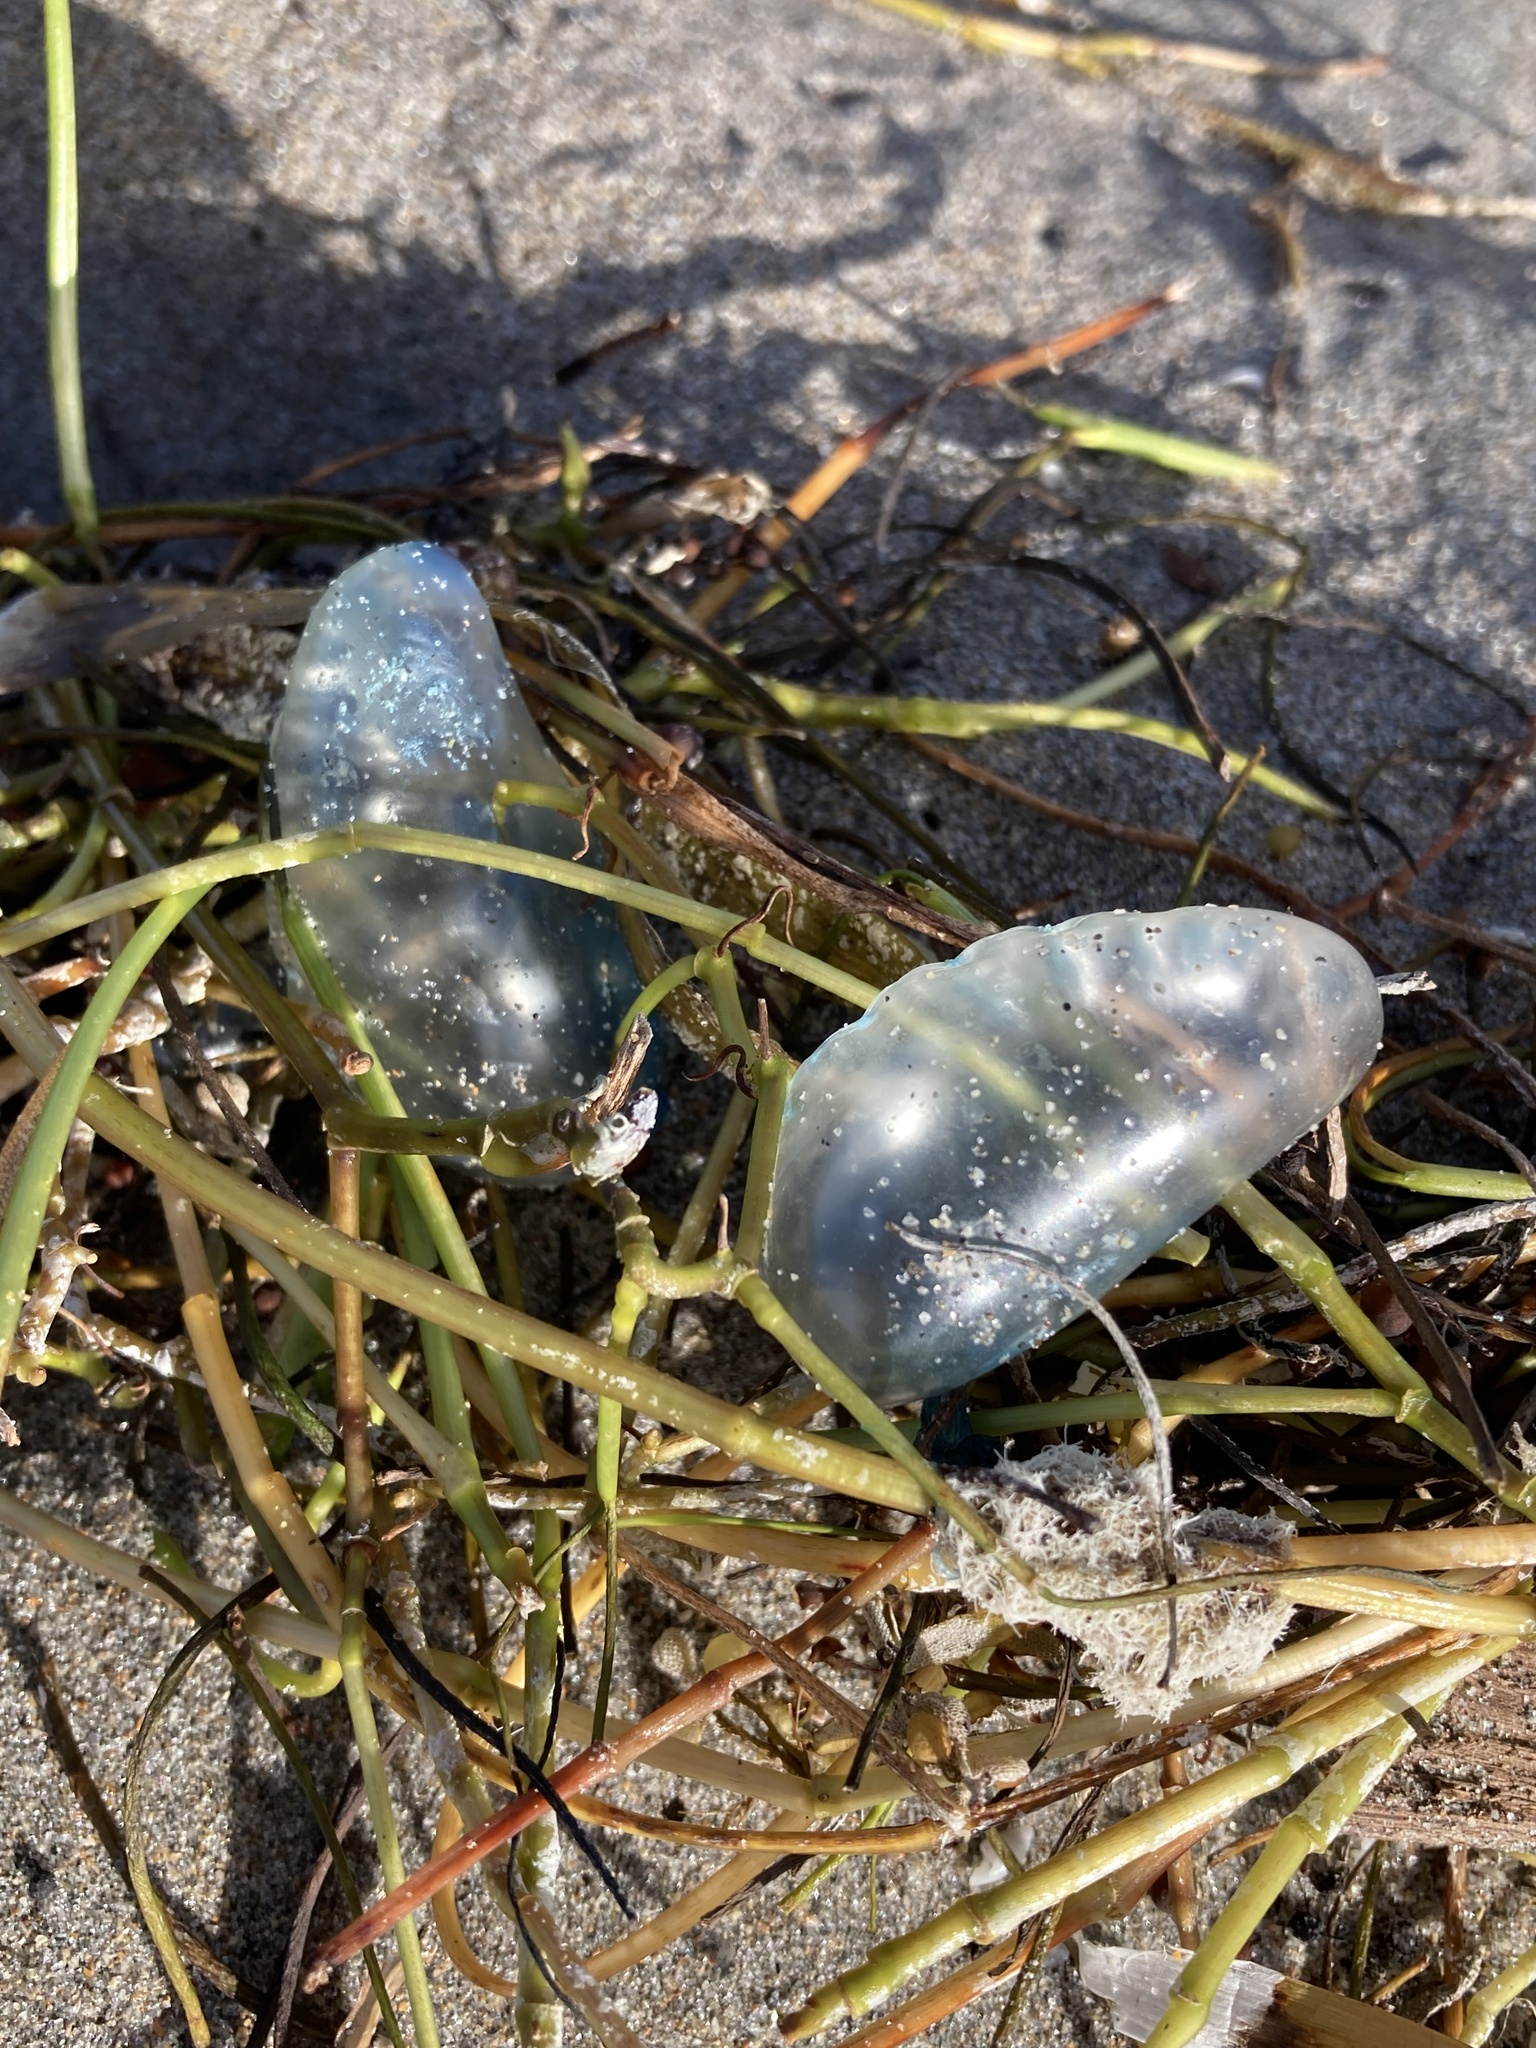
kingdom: Animalia
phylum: Cnidaria
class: Hydrozoa
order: Siphonophorae
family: Physaliidae
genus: Physalia
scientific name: Physalia physalis
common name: Portuguese man-of-war
